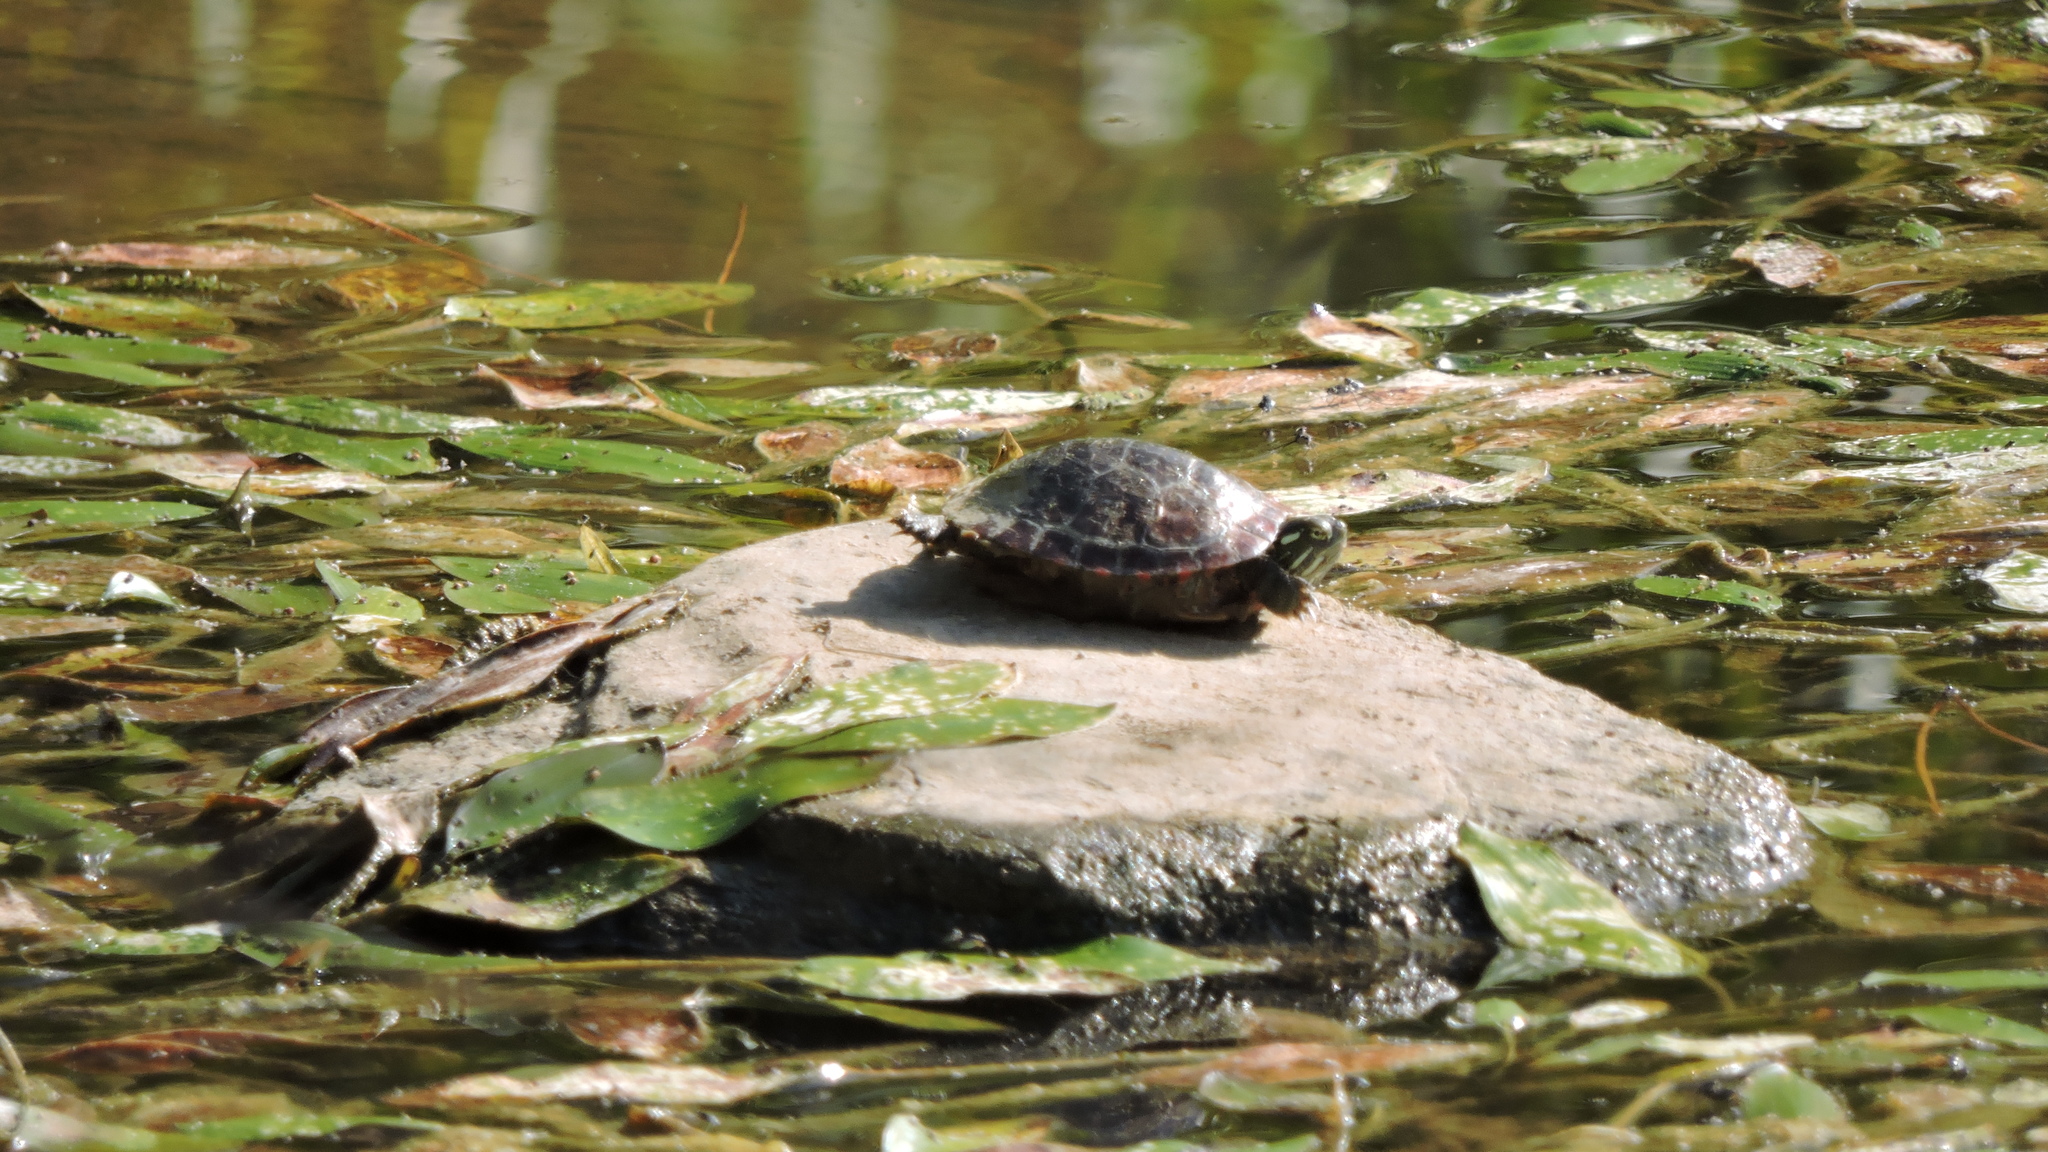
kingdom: Animalia
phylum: Chordata
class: Testudines
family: Emydidae
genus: Chrysemys
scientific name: Chrysemys picta
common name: Painted turtle
